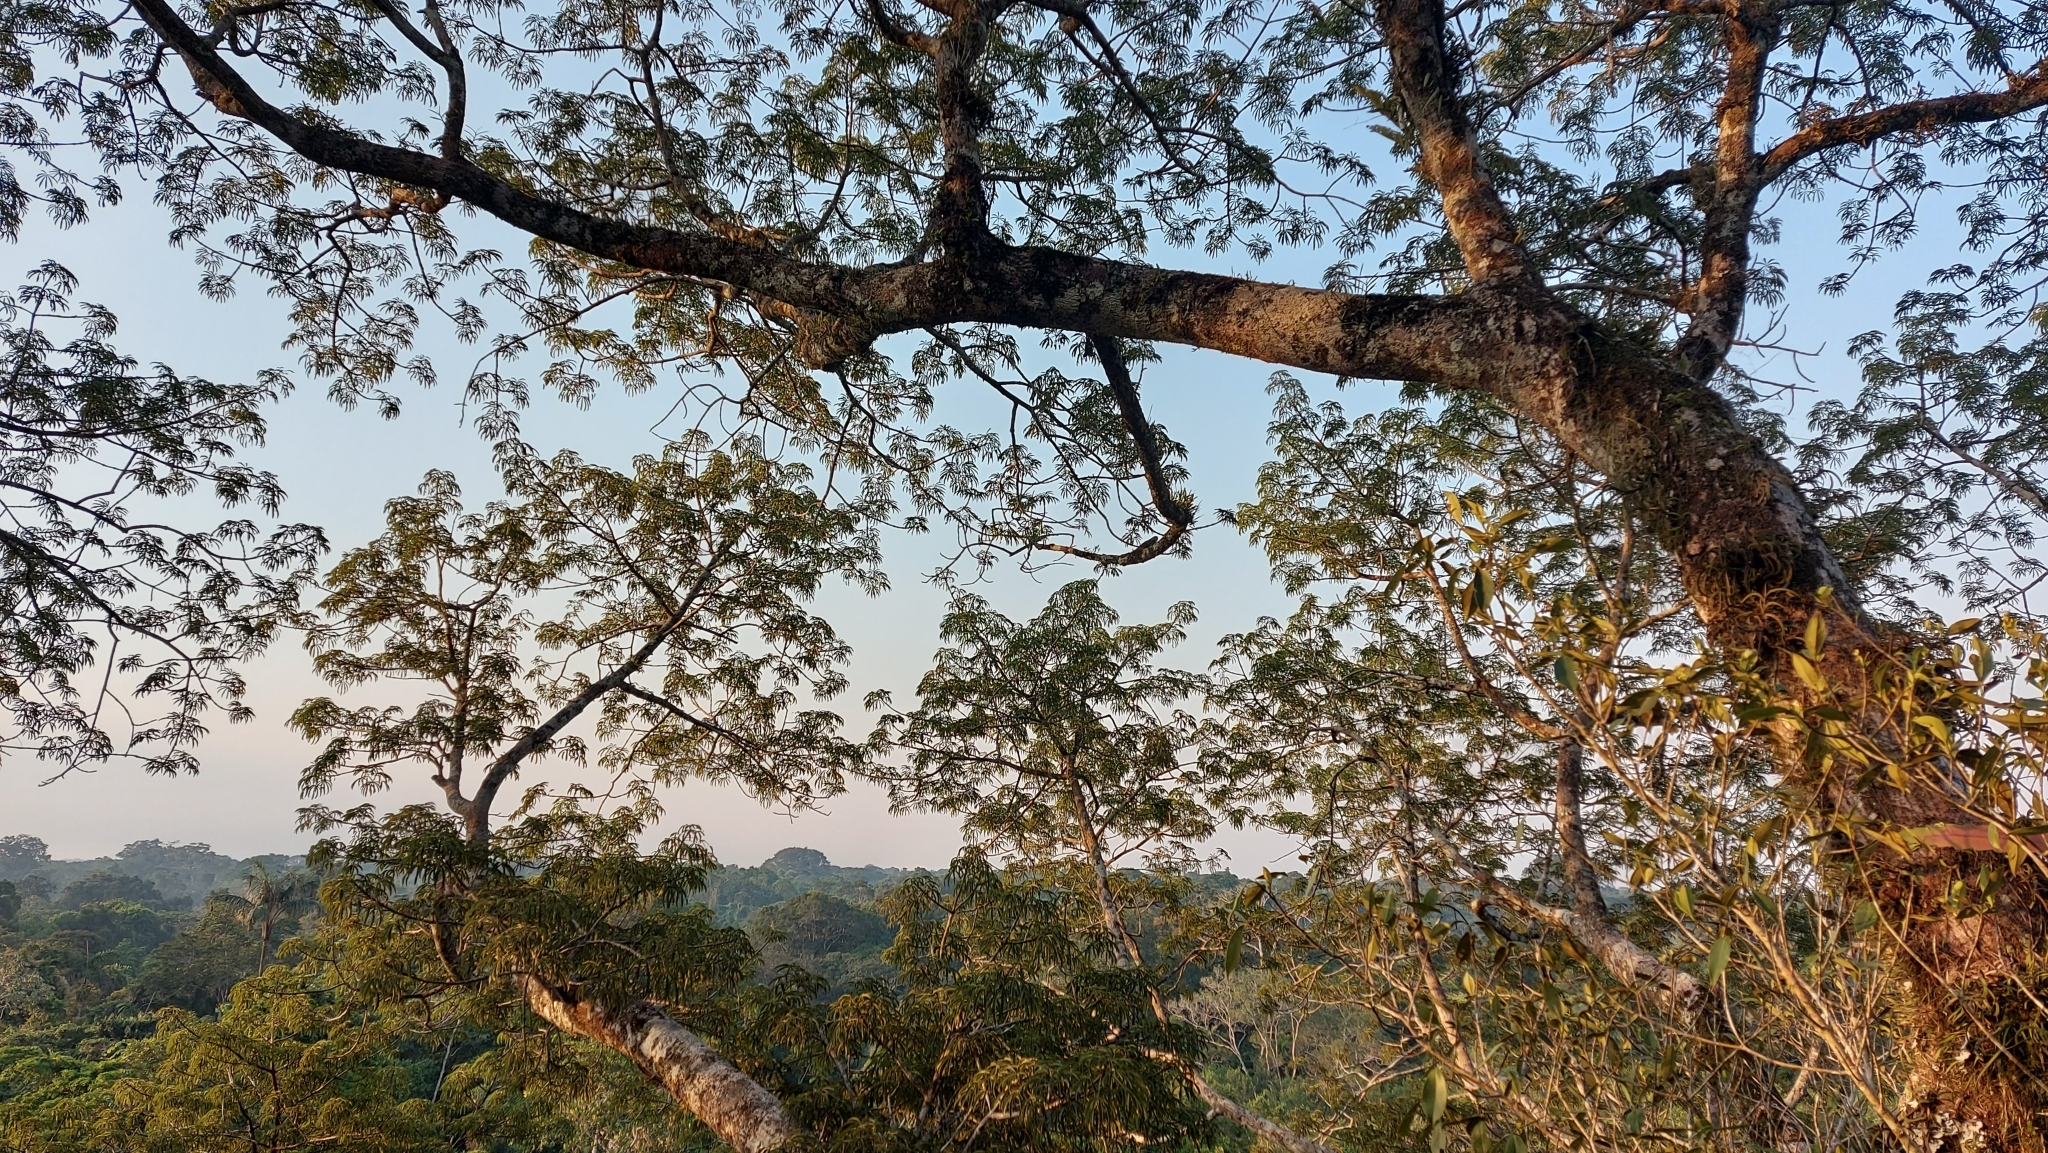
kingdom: Animalia
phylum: Chordata
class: Aves
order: Passeriformes
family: Tyrannidae
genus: Legatus
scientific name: Legatus leucophaius
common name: Piratic flycatcher
